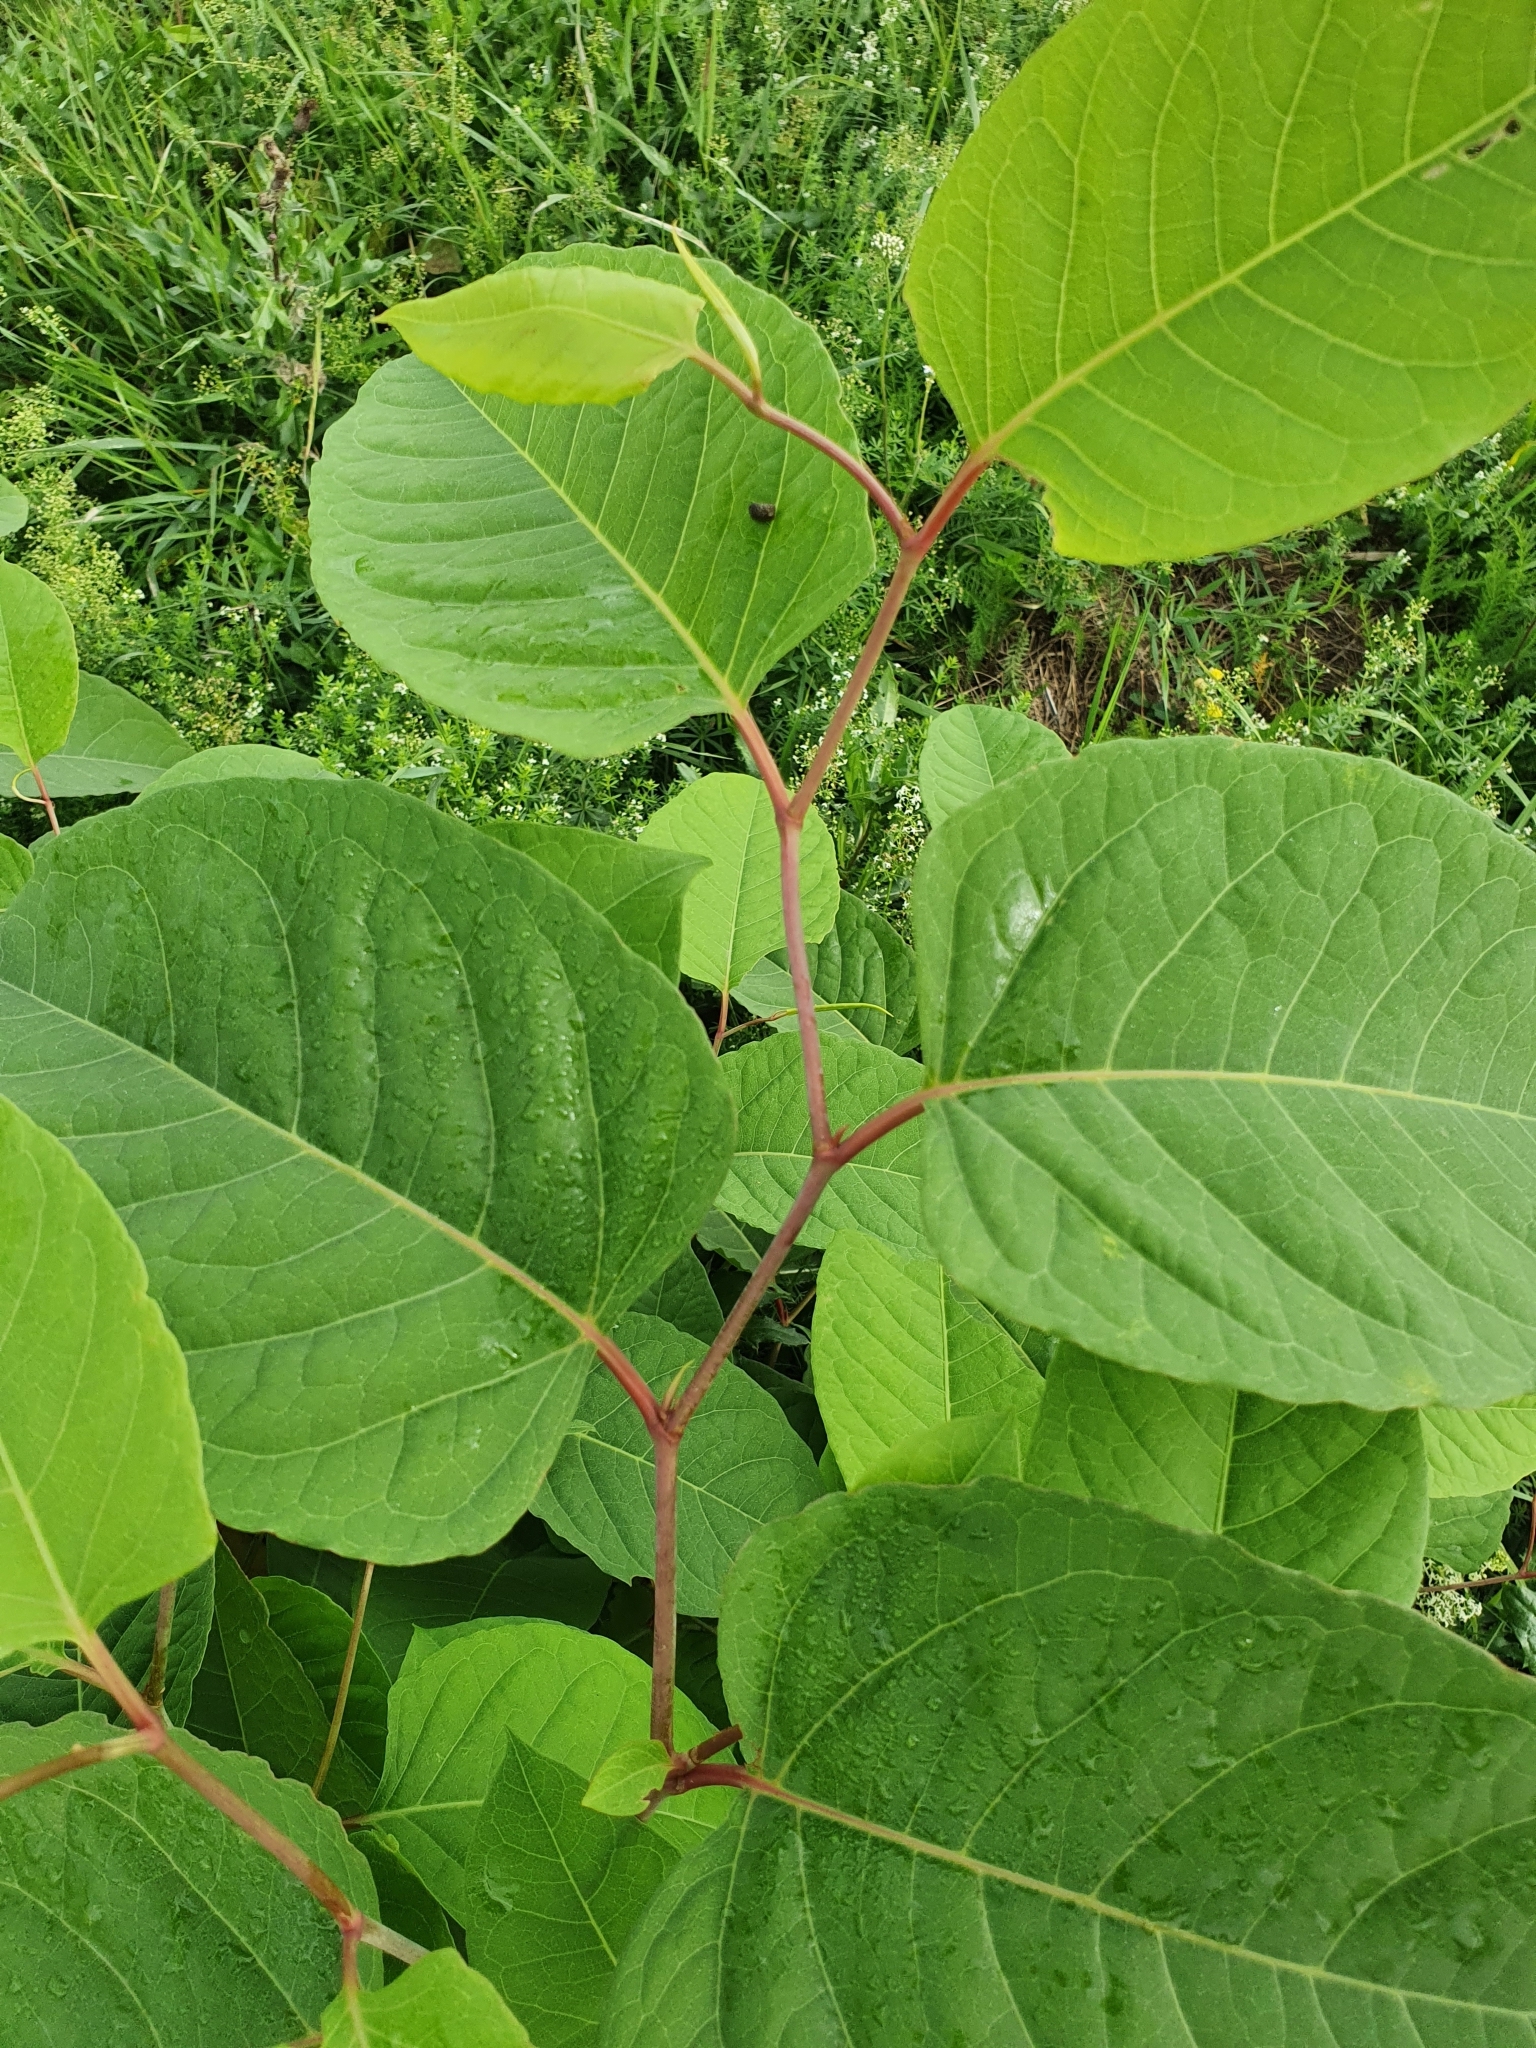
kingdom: Plantae
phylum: Tracheophyta
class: Magnoliopsida
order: Caryophyllales
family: Polygonaceae
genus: Reynoutria
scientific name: Reynoutria japonica
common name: Japanese knotweed
